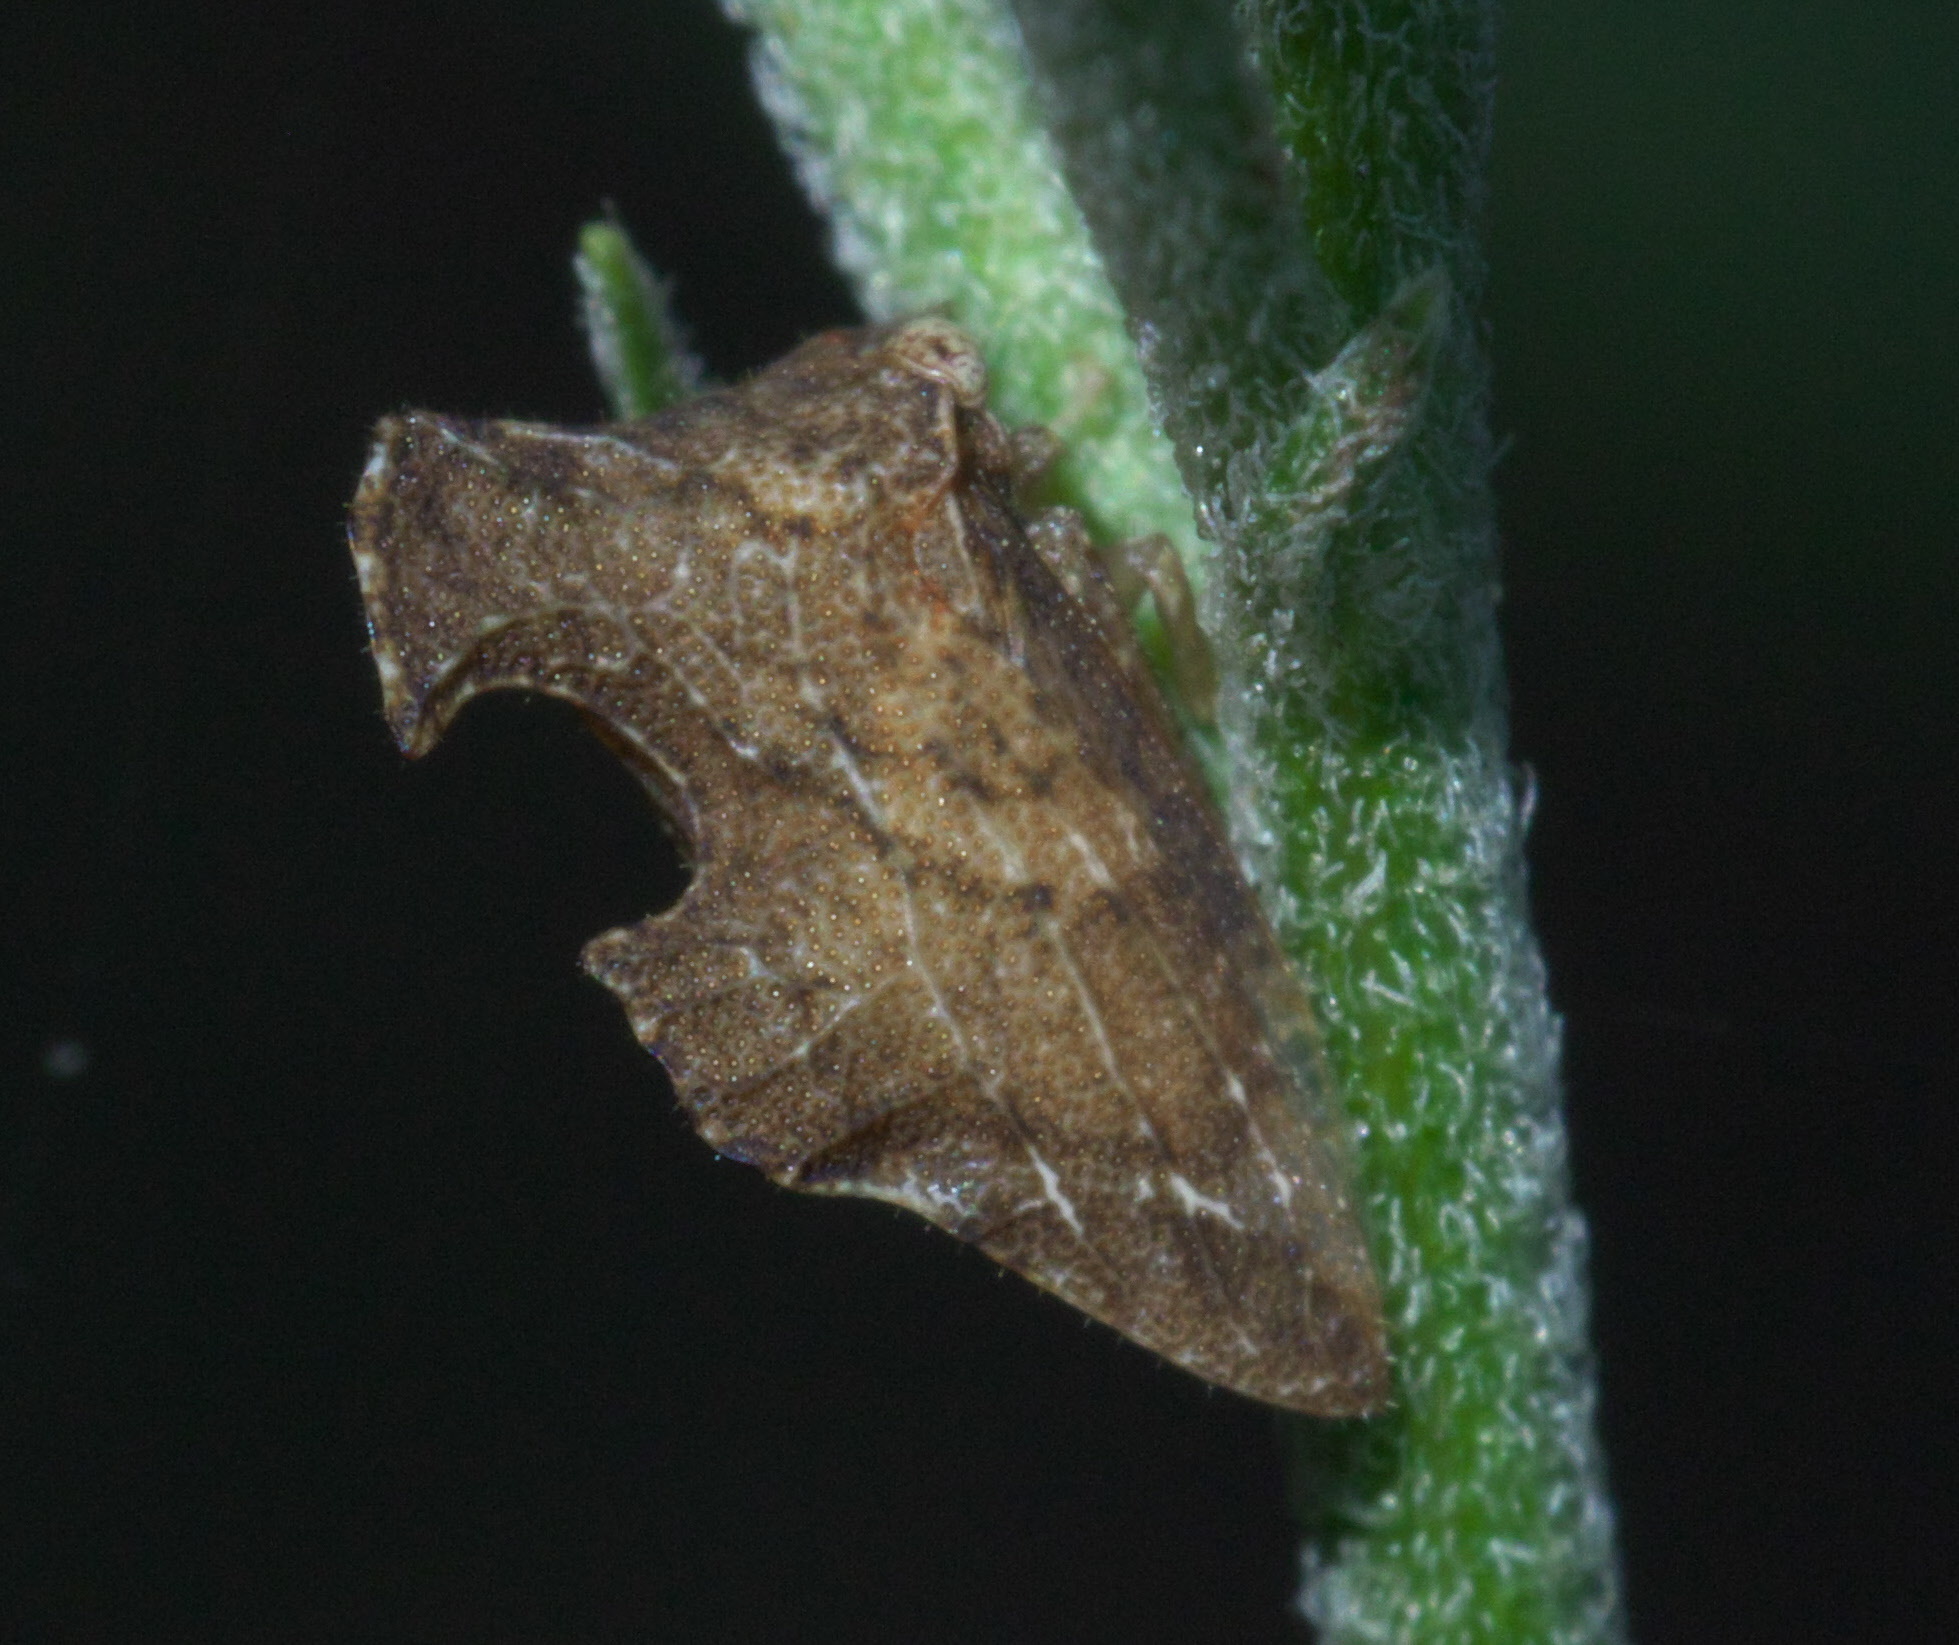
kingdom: Animalia
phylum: Arthropoda
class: Insecta
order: Hemiptera
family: Membracidae
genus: Entylia
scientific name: Entylia carinata
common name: Keeled treehopper
